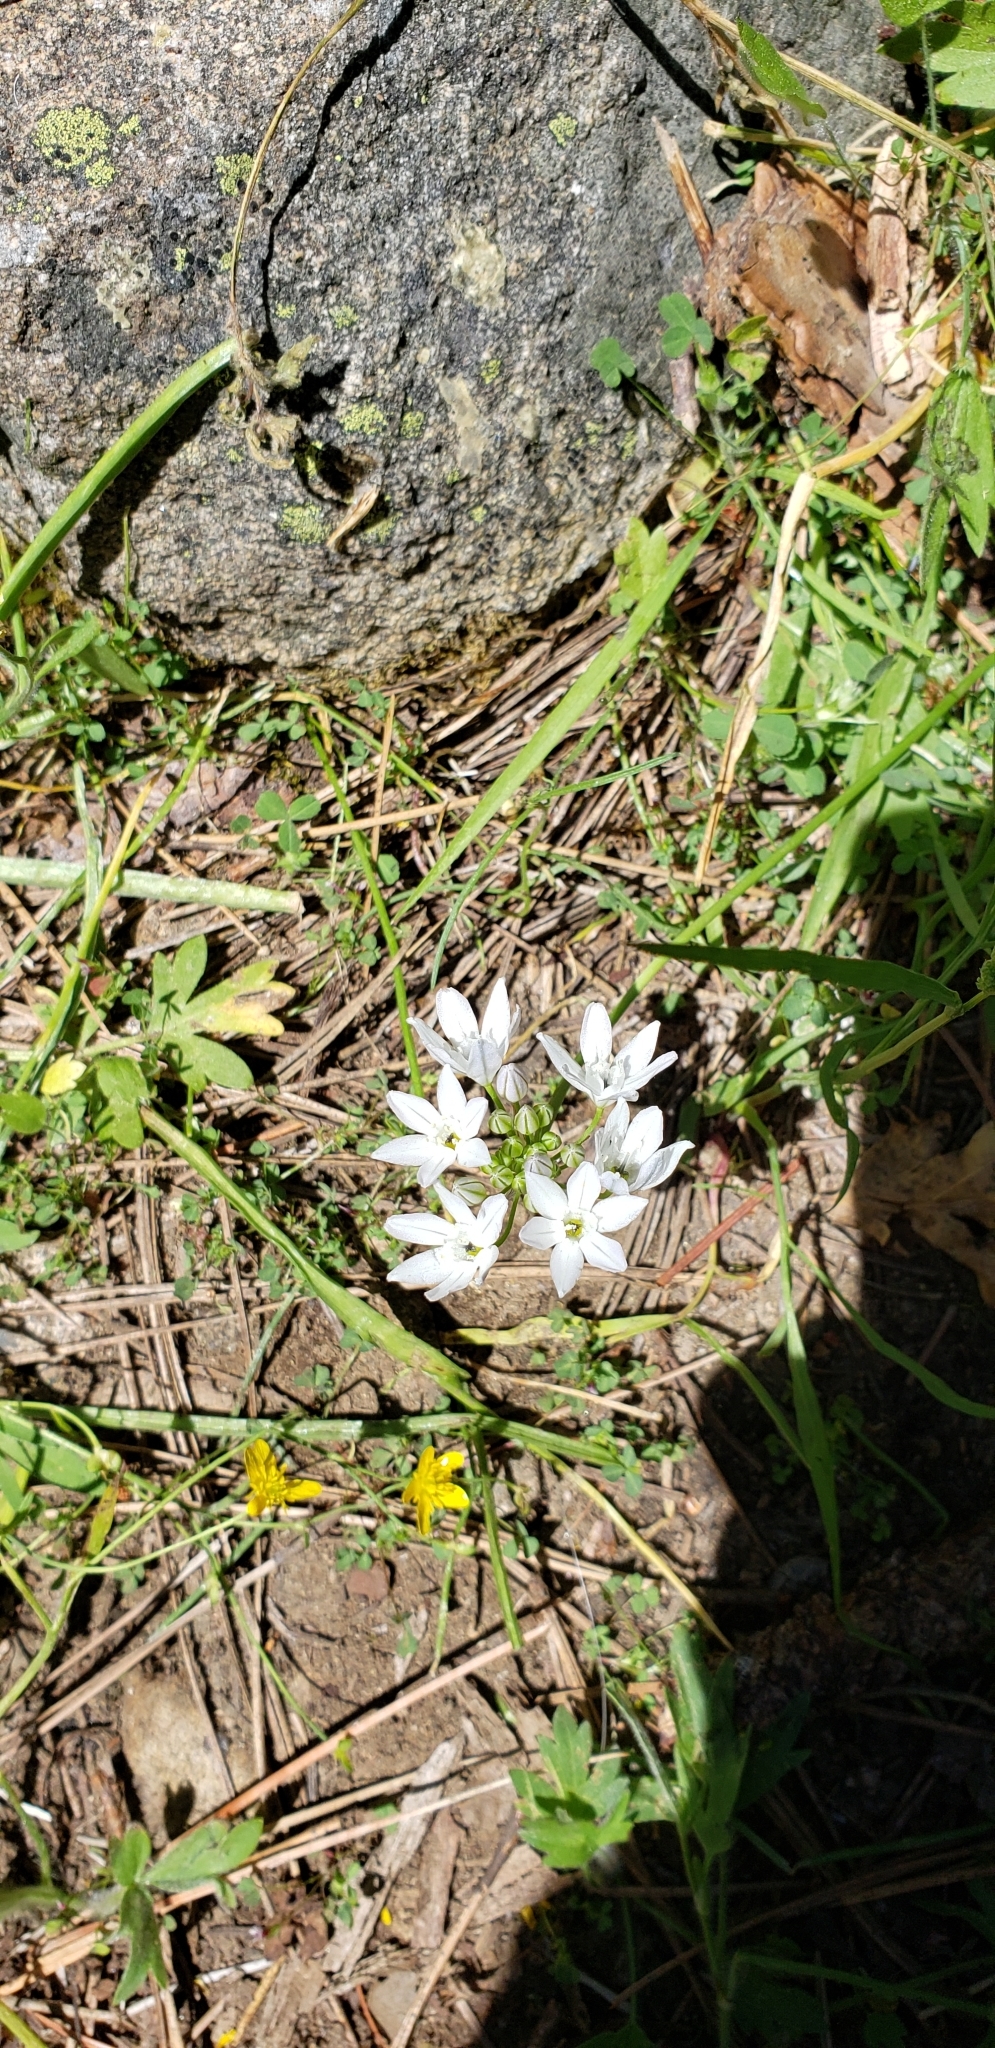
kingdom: Plantae
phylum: Tracheophyta
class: Liliopsida
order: Asparagales
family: Asparagaceae
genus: Triteleia
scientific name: Triteleia hyacinthina
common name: White brodiaea
